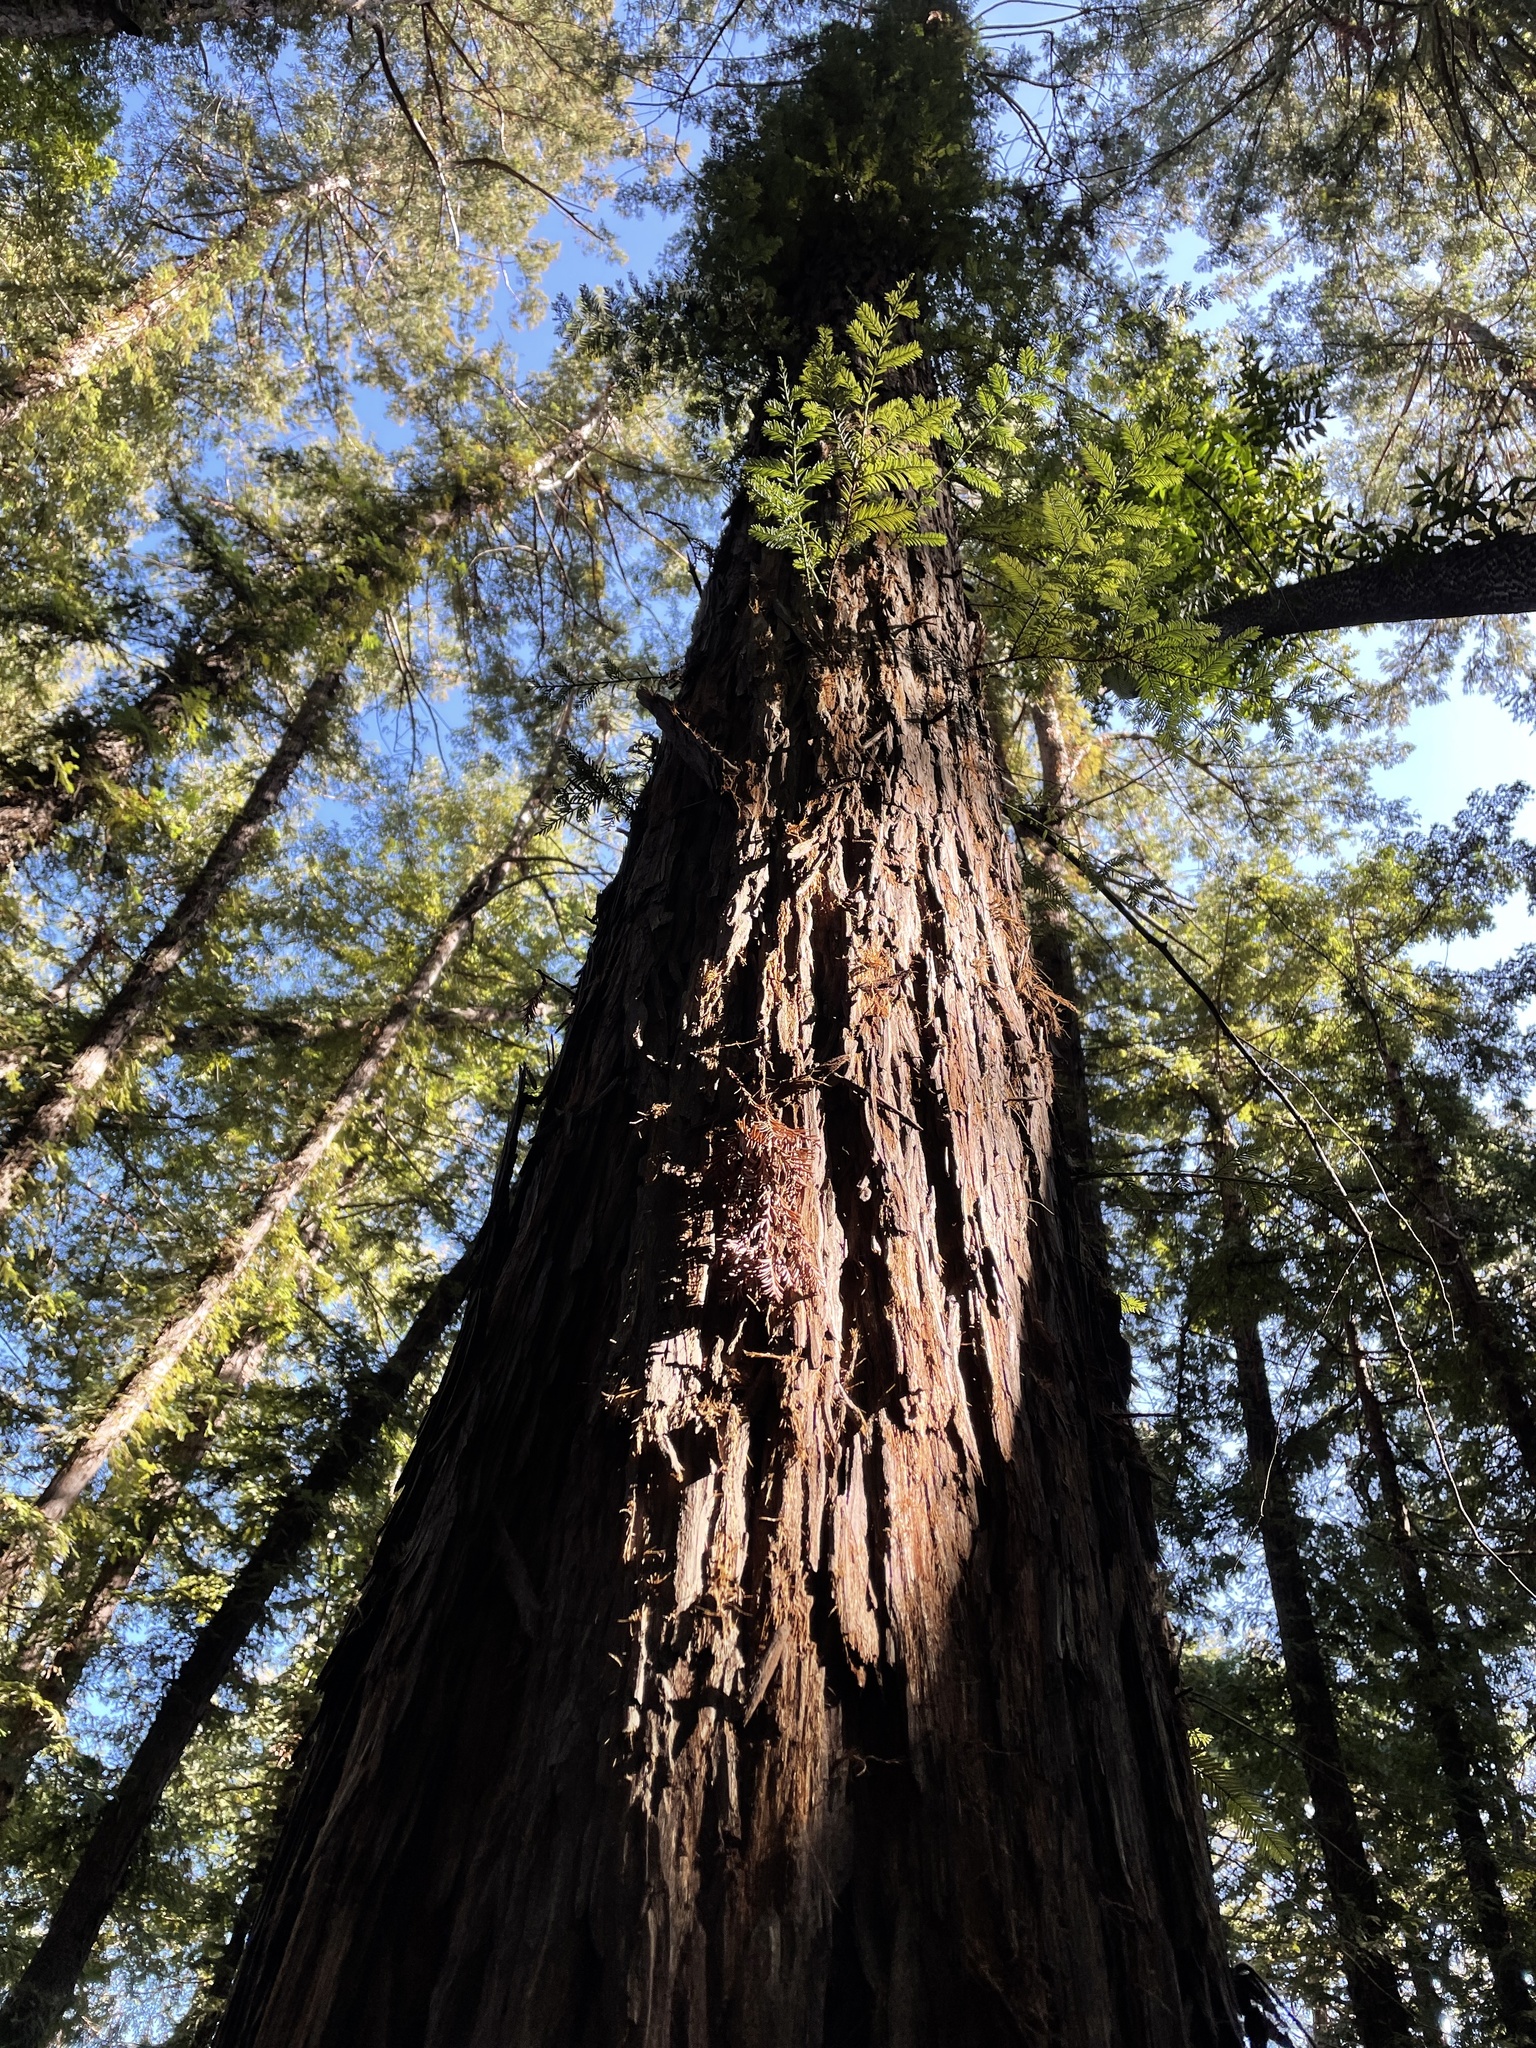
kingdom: Plantae
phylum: Tracheophyta
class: Pinopsida
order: Pinales
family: Cupressaceae
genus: Sequoia
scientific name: Sequoia sempervirens
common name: Coast redwood
